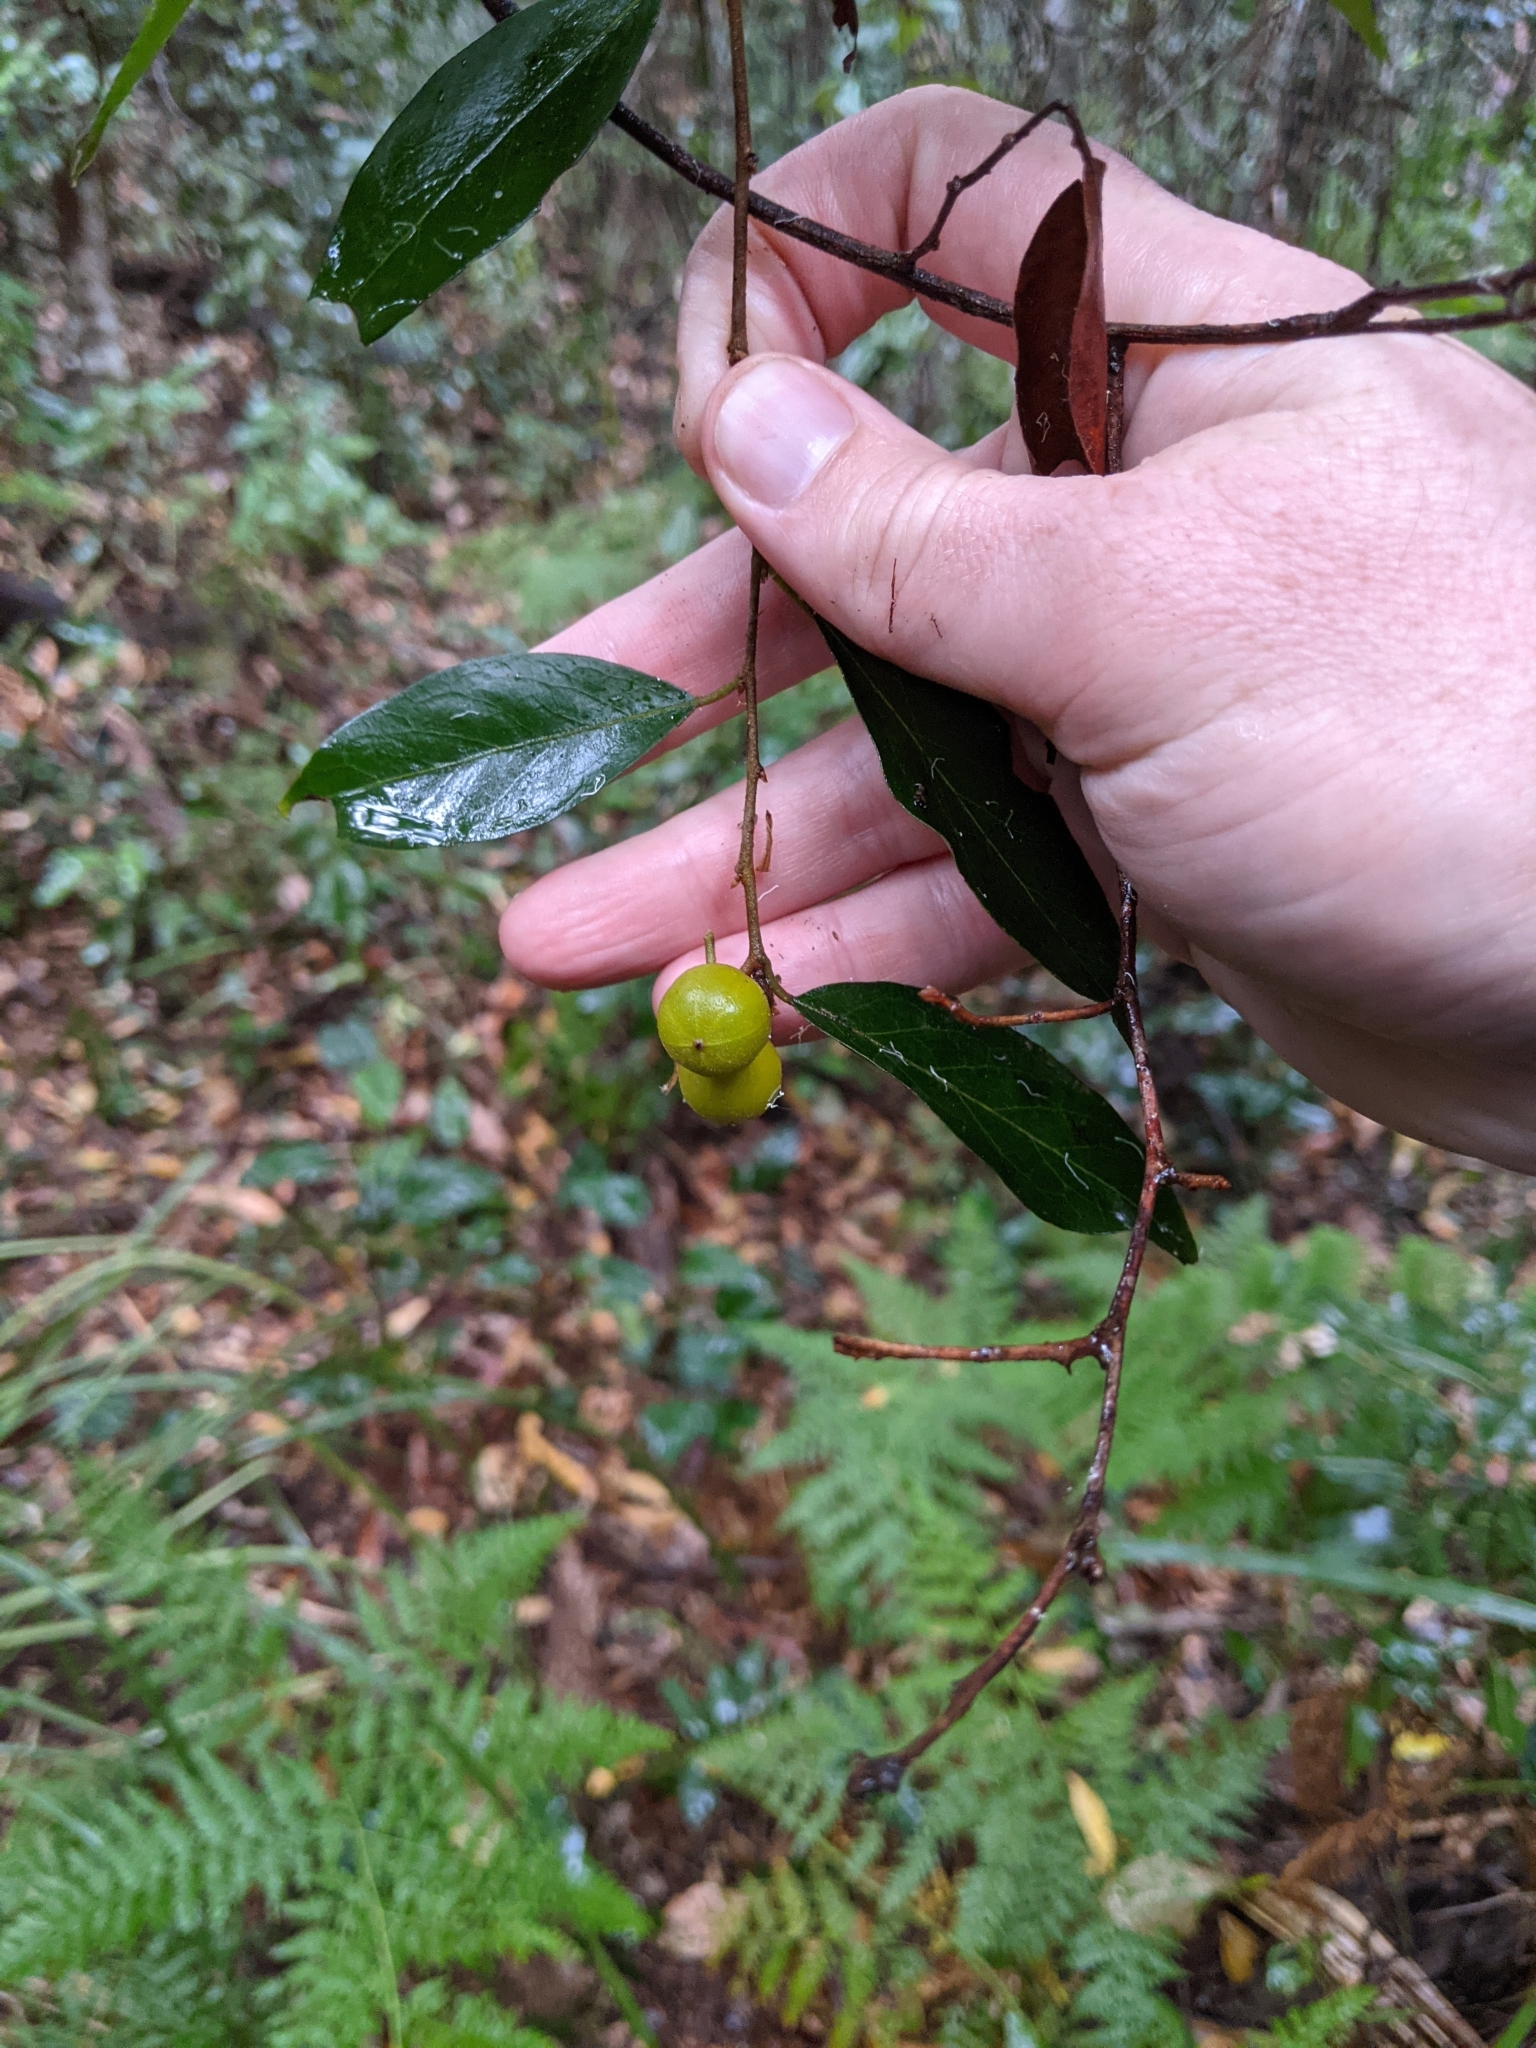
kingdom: Plantae
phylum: Tracheophyta
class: Magnoliopsida
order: Malpighiales
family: Picrodendraceae
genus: Petalostigma
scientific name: Petalostigma triloculare
